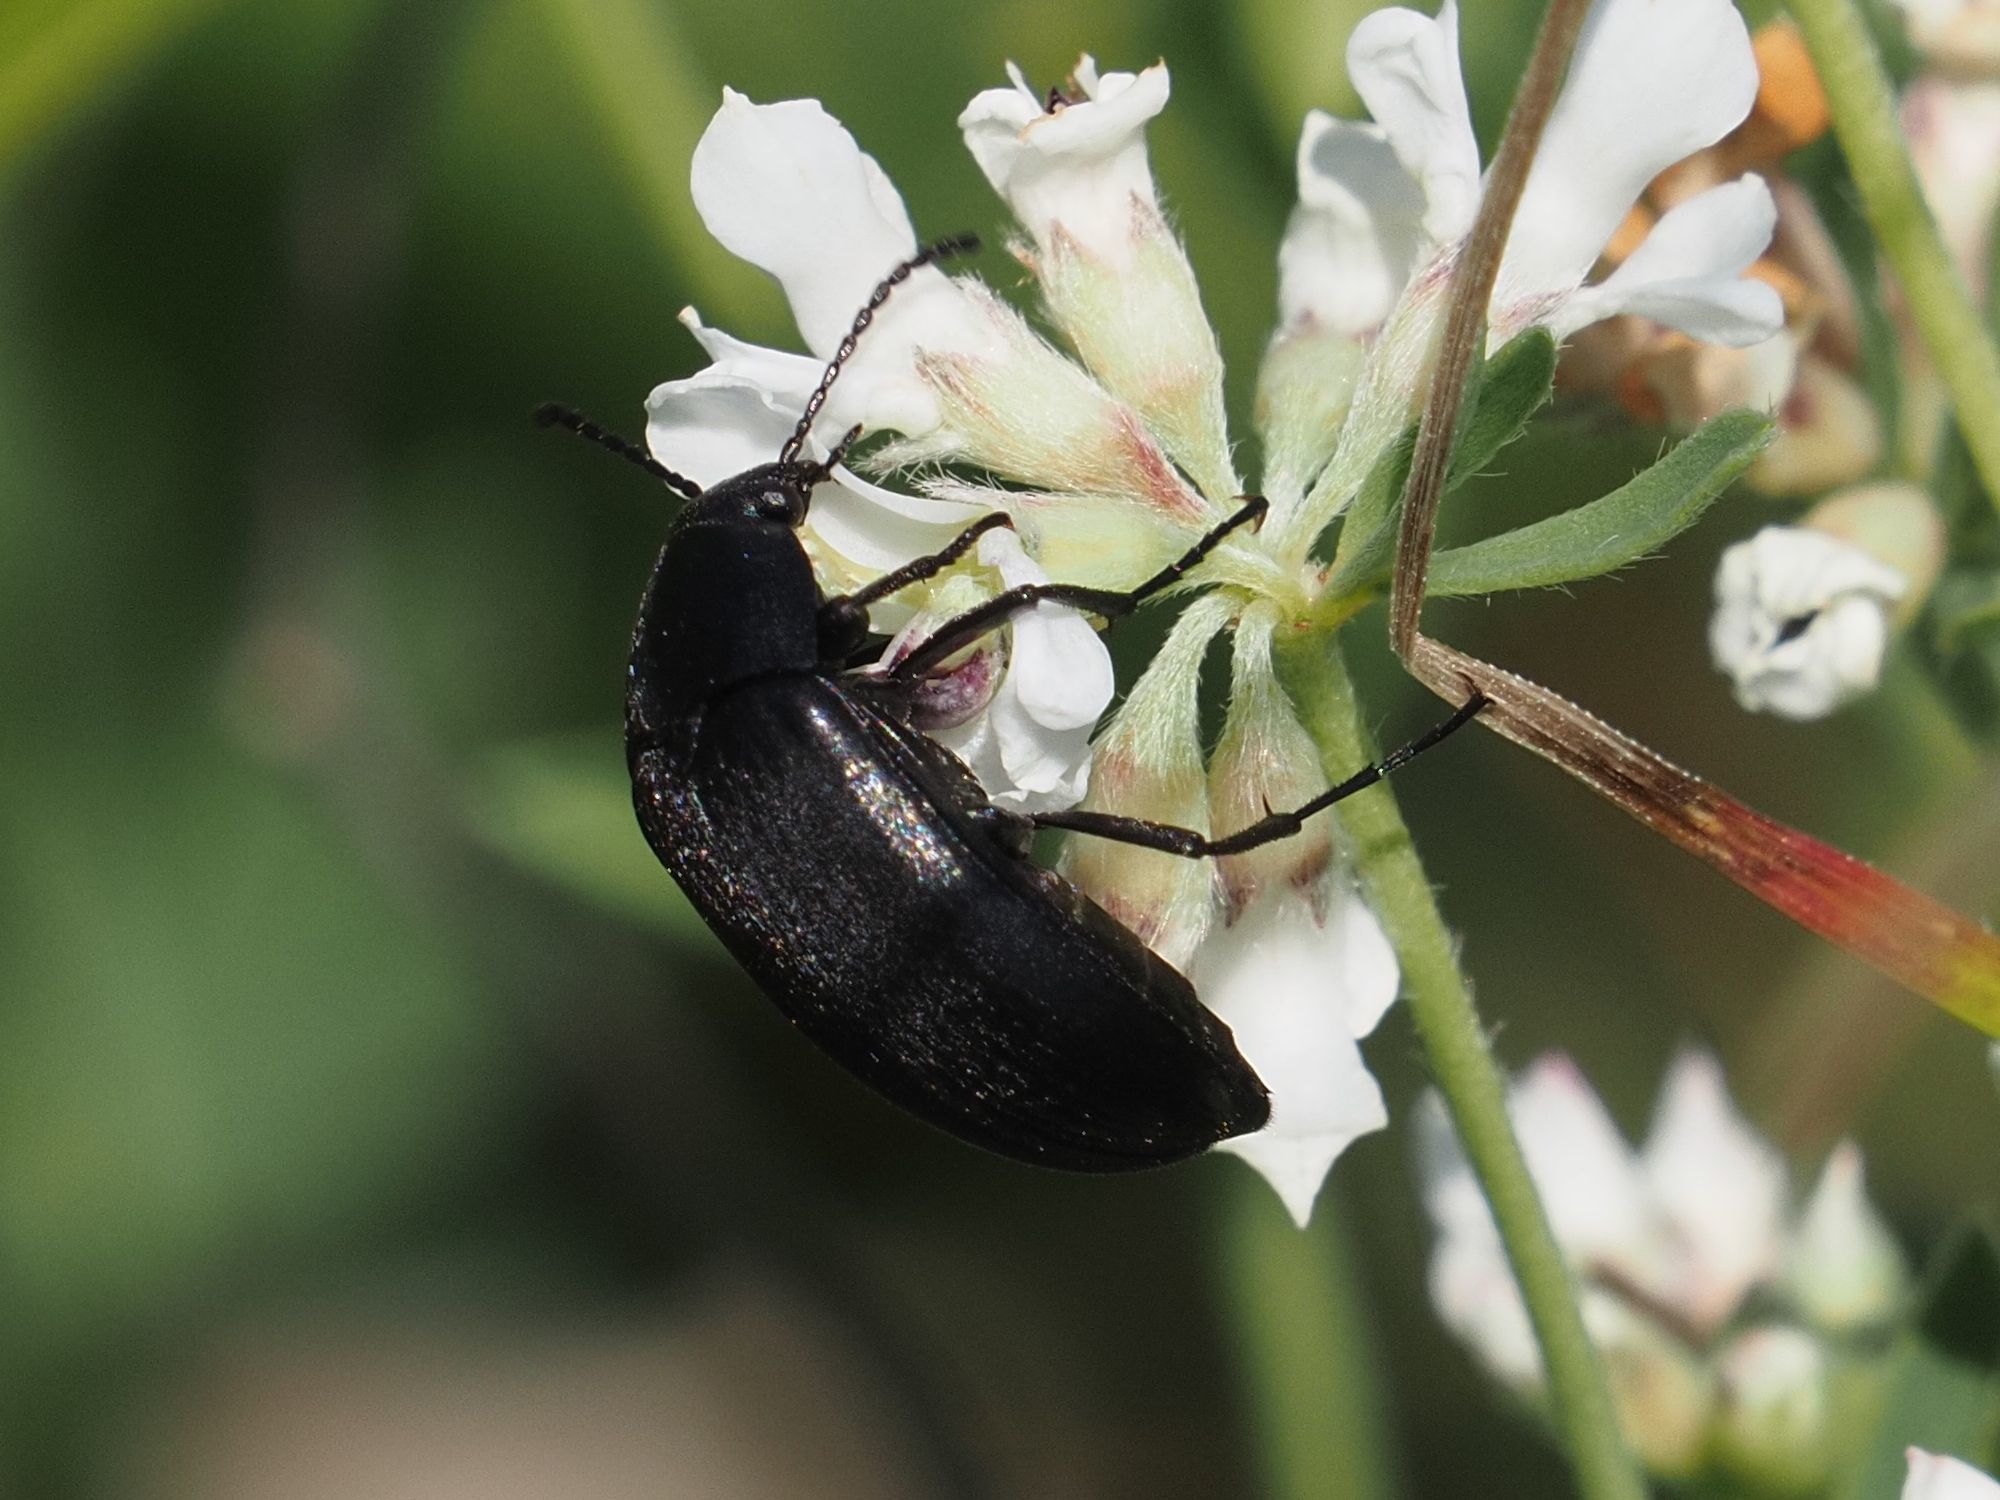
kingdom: Animalia
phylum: Arthropoda
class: Insecta
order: Coleoptera
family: Tenebrionidae
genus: Podonta
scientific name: Podonta nigrita
